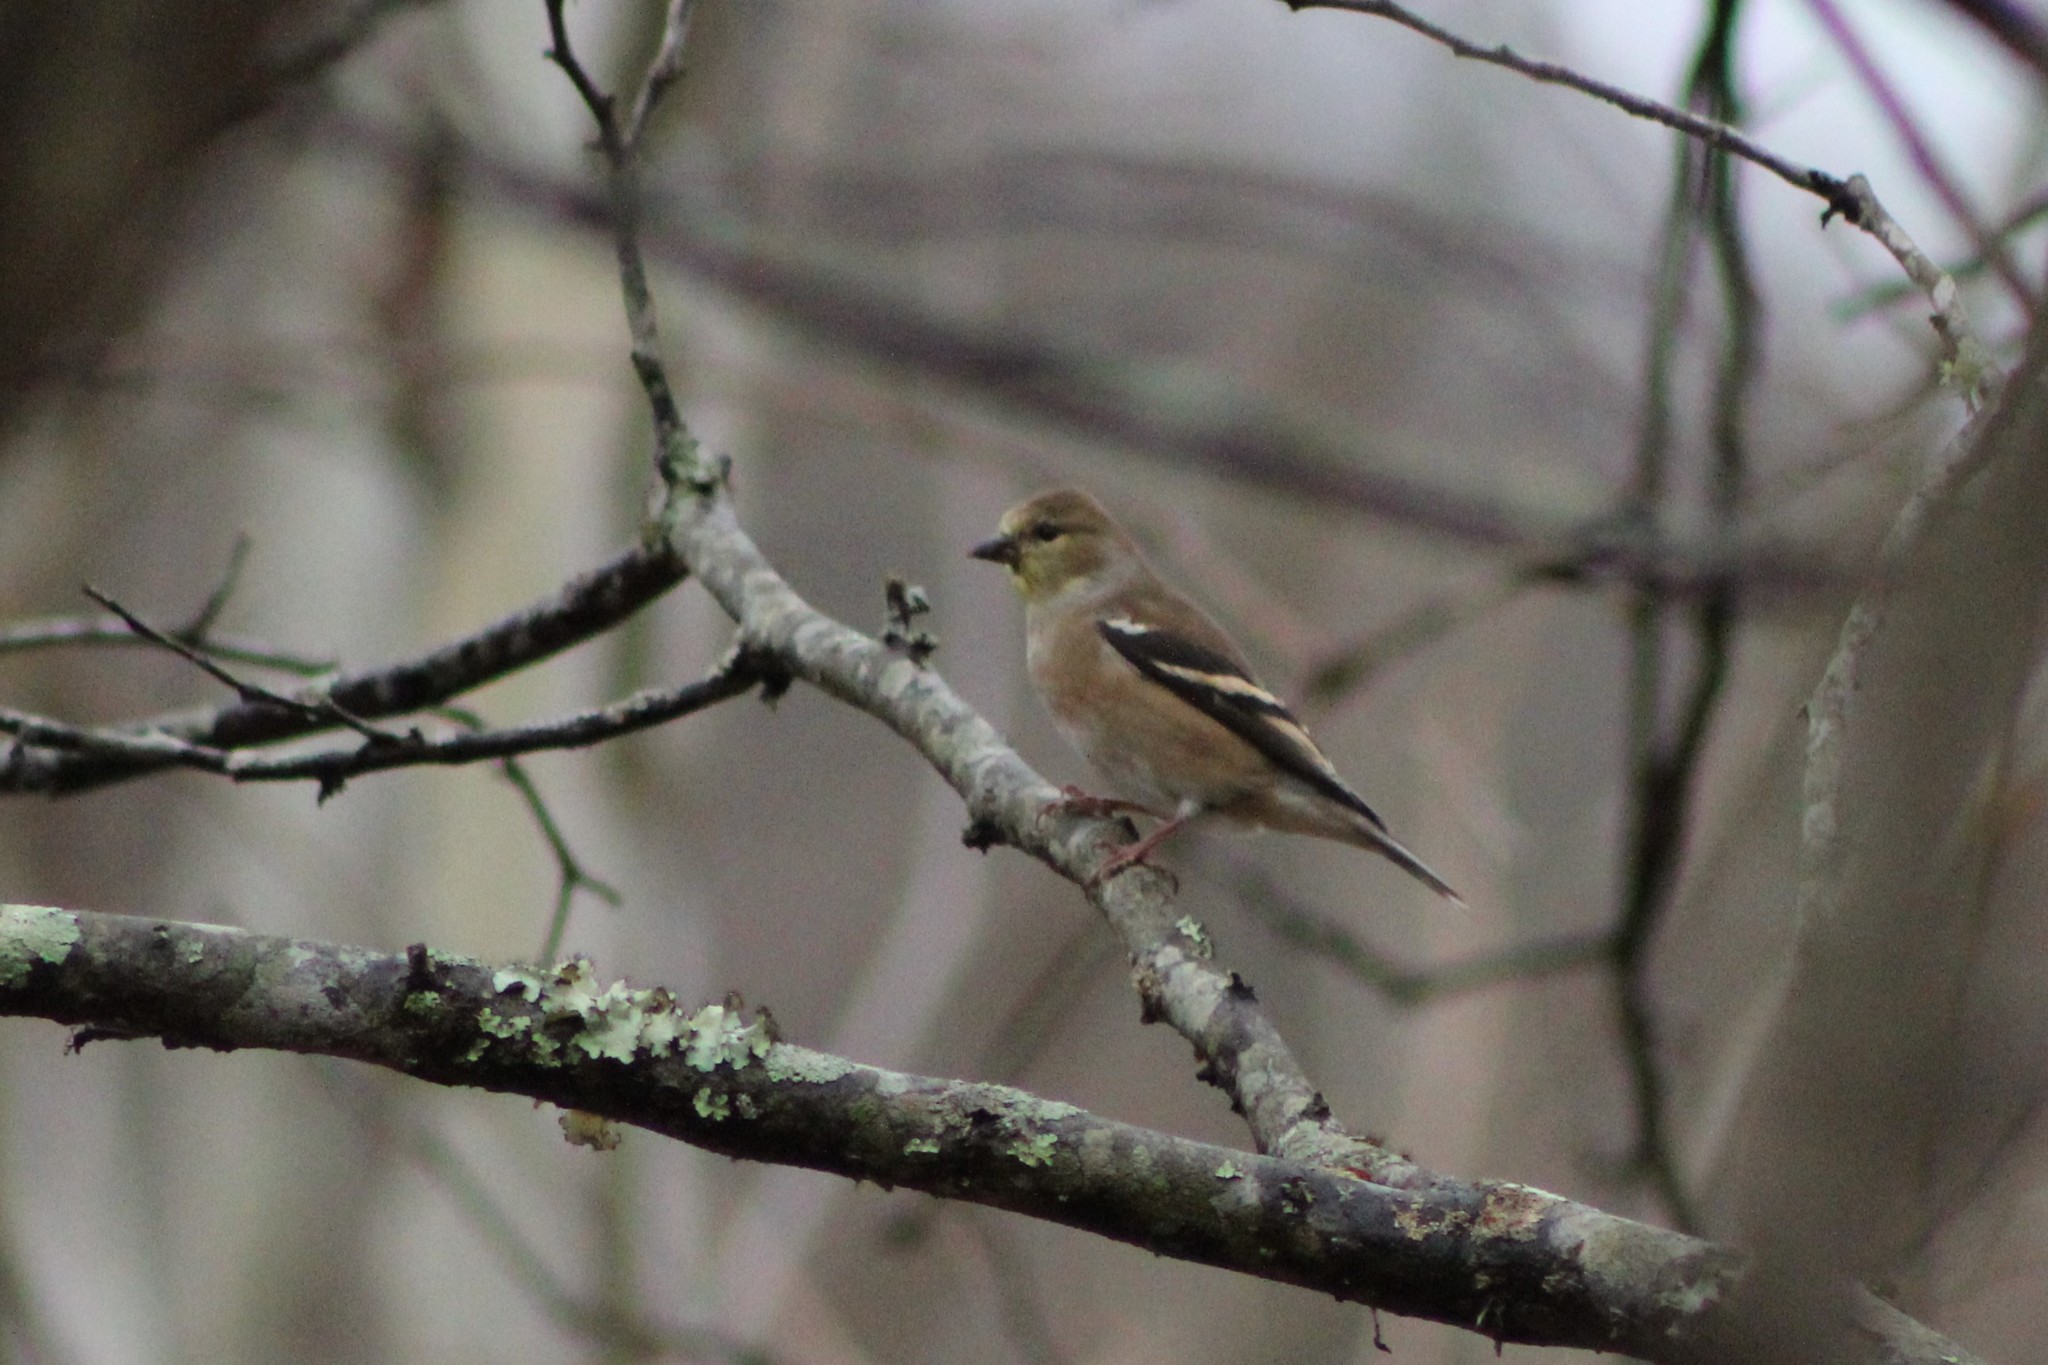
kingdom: Animalia
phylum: Chordata
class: Aves
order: Passeriformes
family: Fringillidae
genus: Spinus
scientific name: Spinus tristis
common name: American goldfinch
